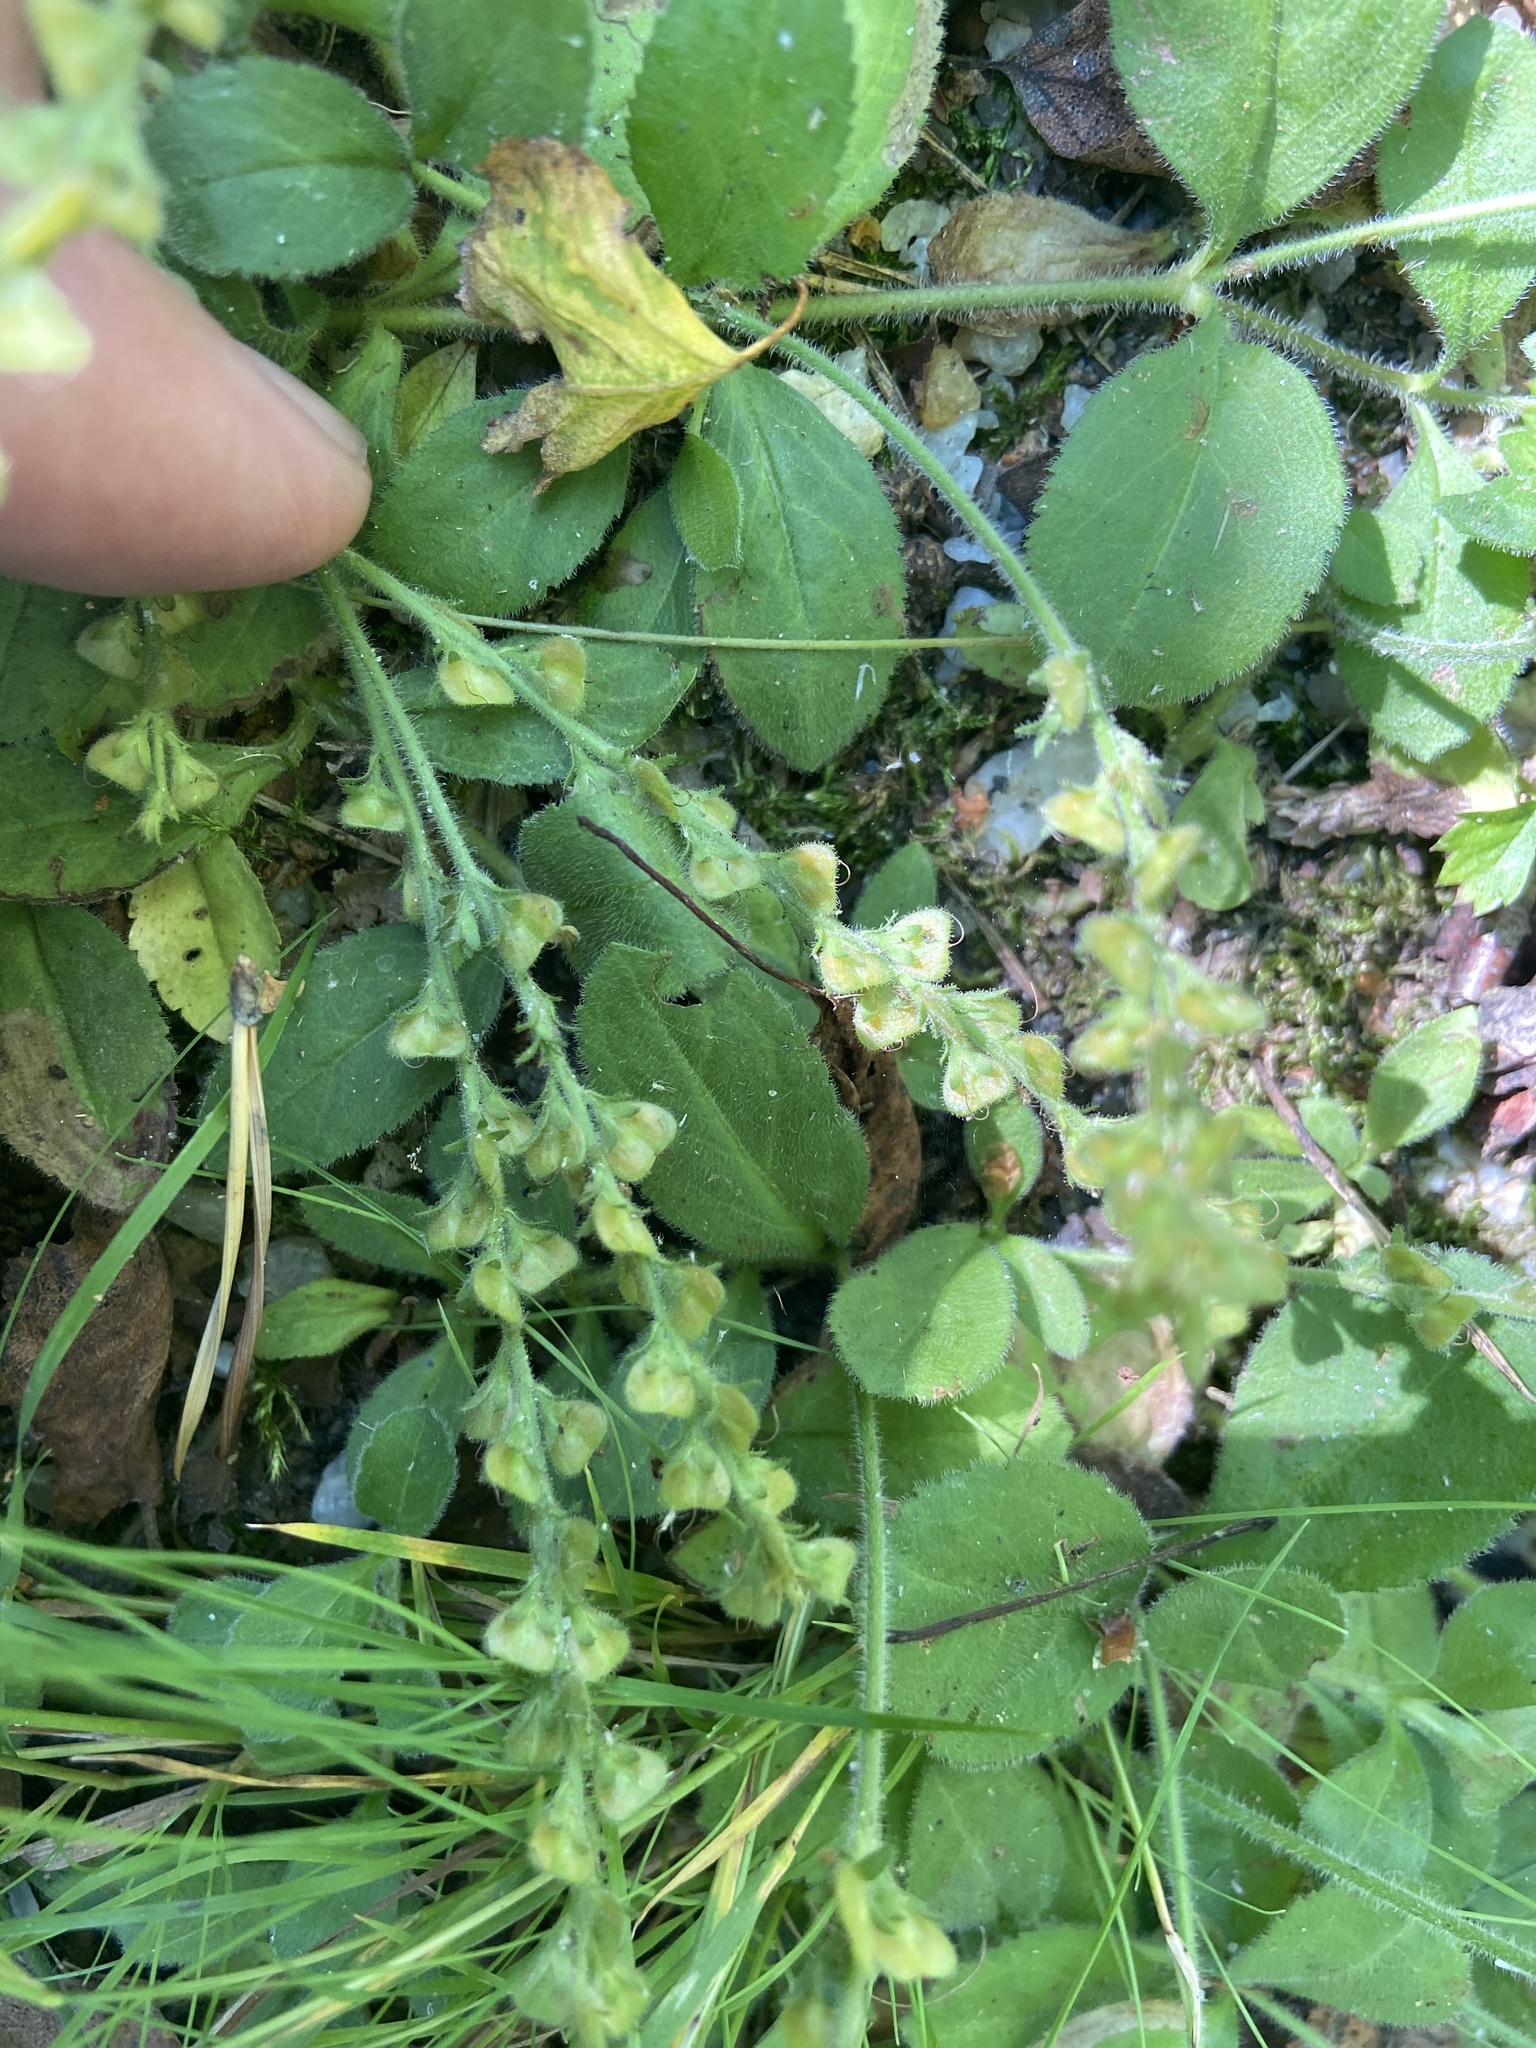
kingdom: Plantae
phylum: Tracheophyta
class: Magnoliopsida
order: Lamiales
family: Plantaginaceae
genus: Veronica
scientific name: Veronica officinalis
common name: Common speedwell
